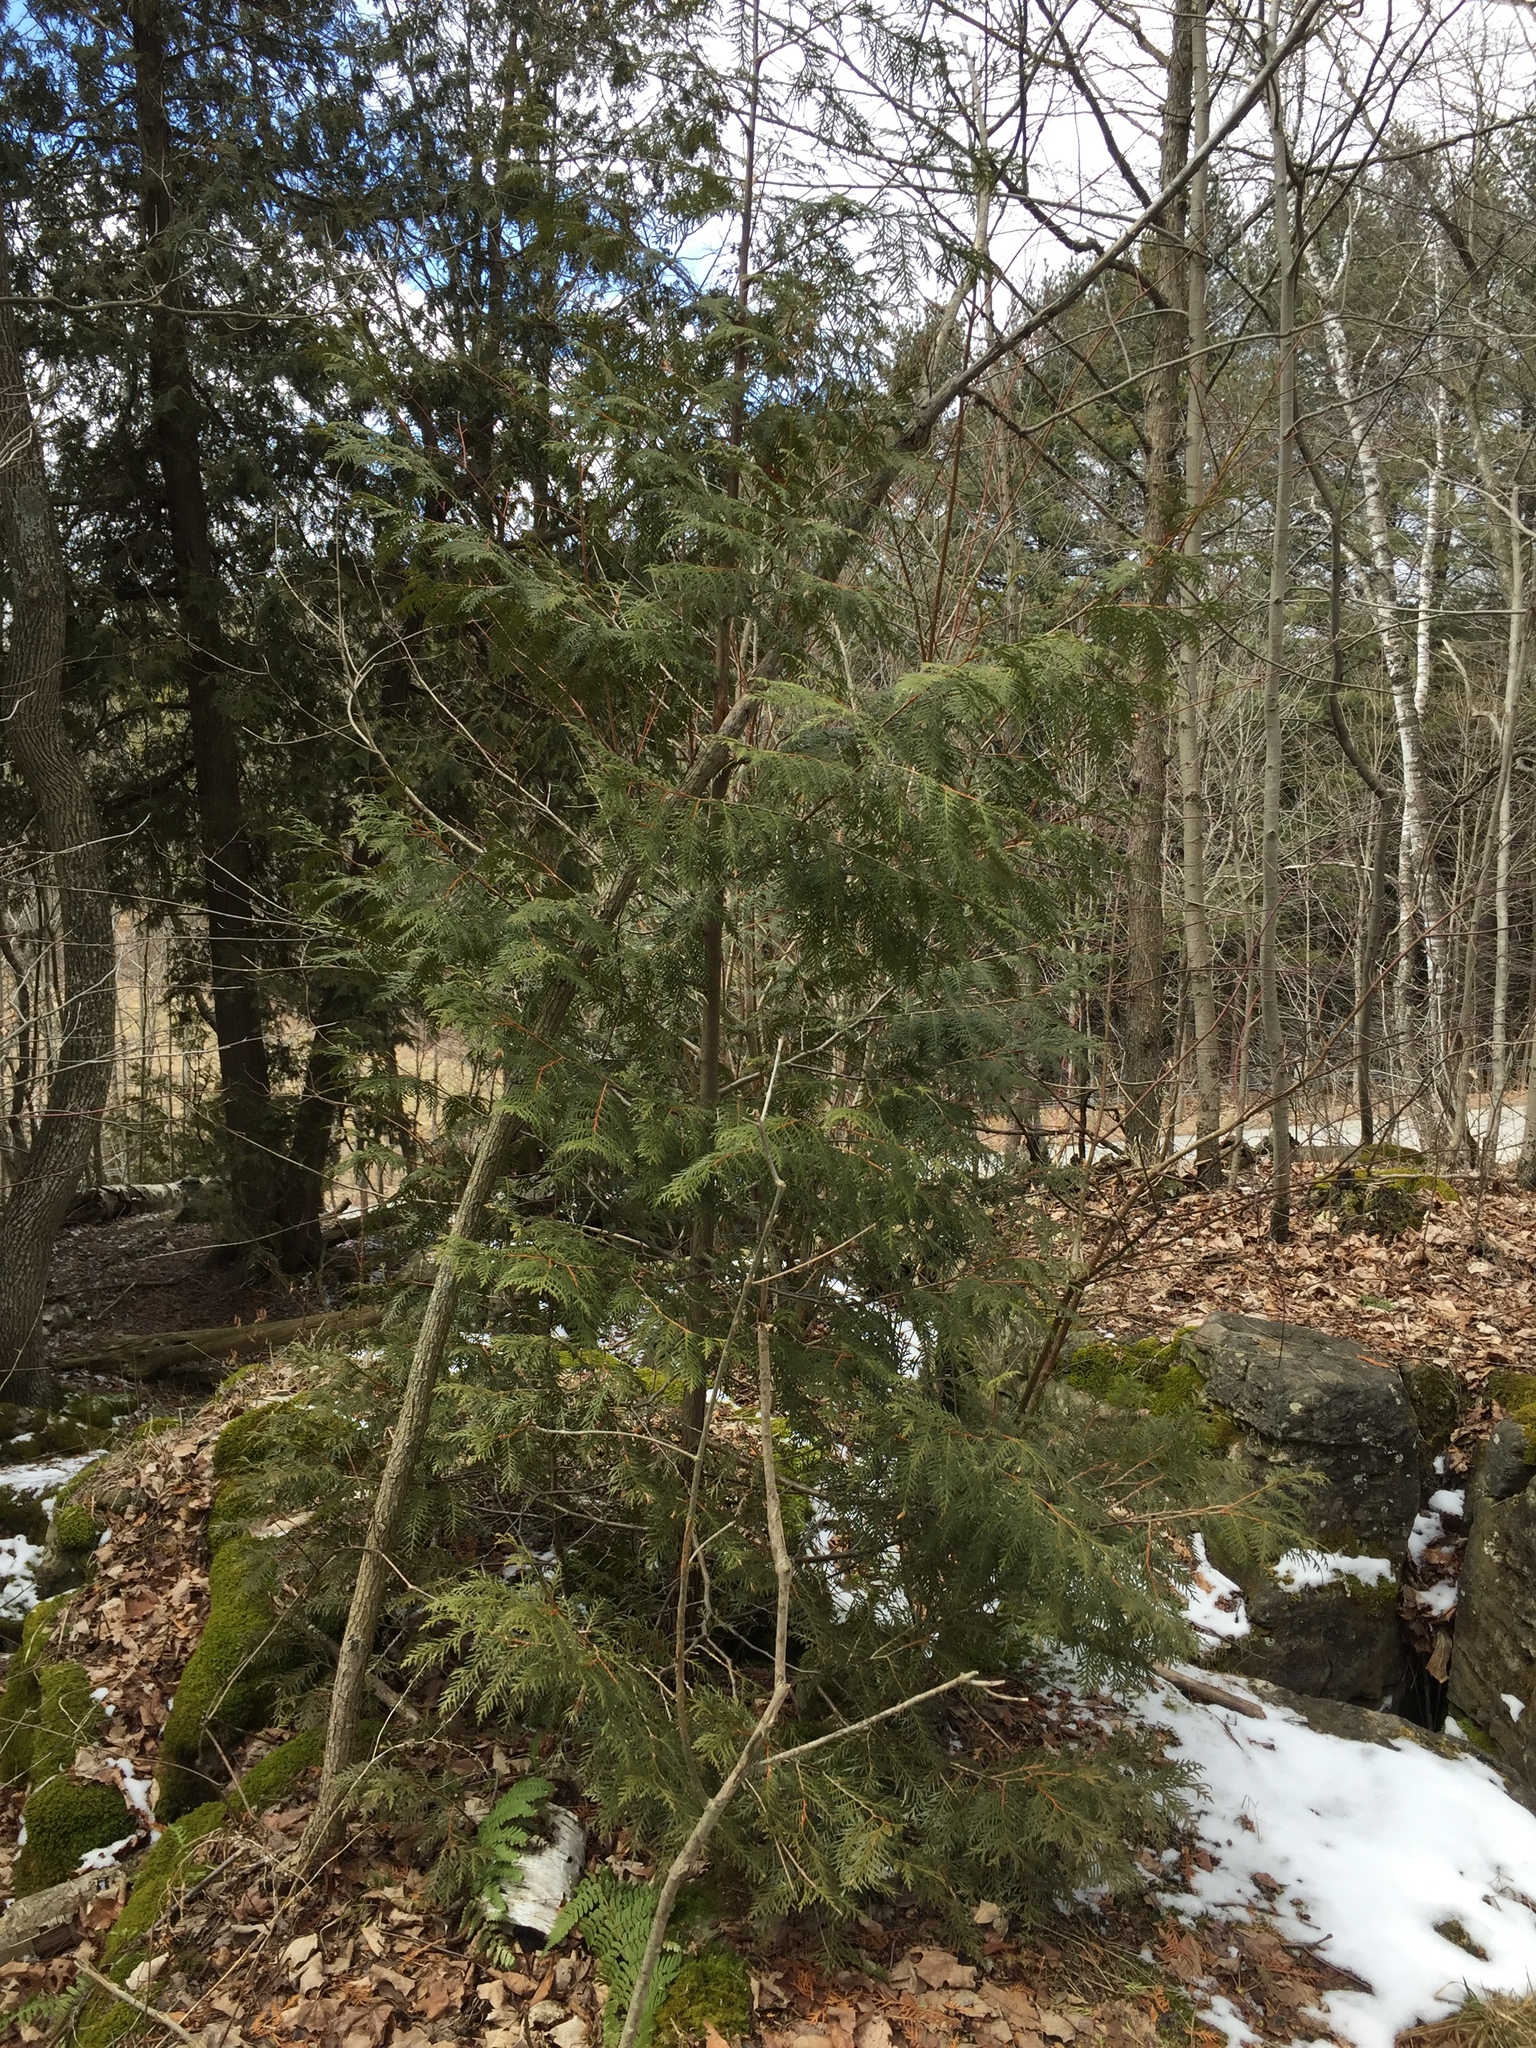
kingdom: Plantae
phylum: Tracheophyta
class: Pinopsida
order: Pinales
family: Cupressaceae
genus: Thuja
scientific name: Thuja occidentalis
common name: Northern white-cedar
